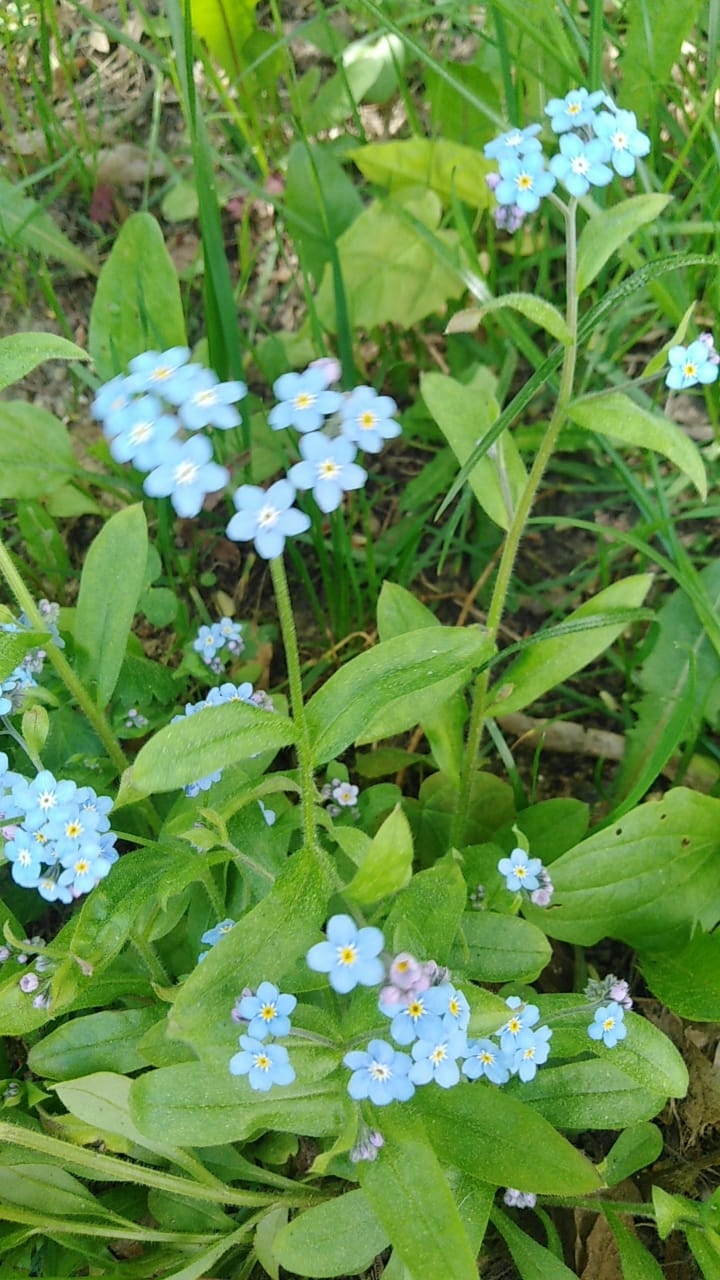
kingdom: Plantae
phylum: Tracheophyta
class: Magnoliopsida
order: Boraginales
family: Boraginaceae
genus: Myosotis
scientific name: Myosotis sylvatica
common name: Wood forget-me-not
